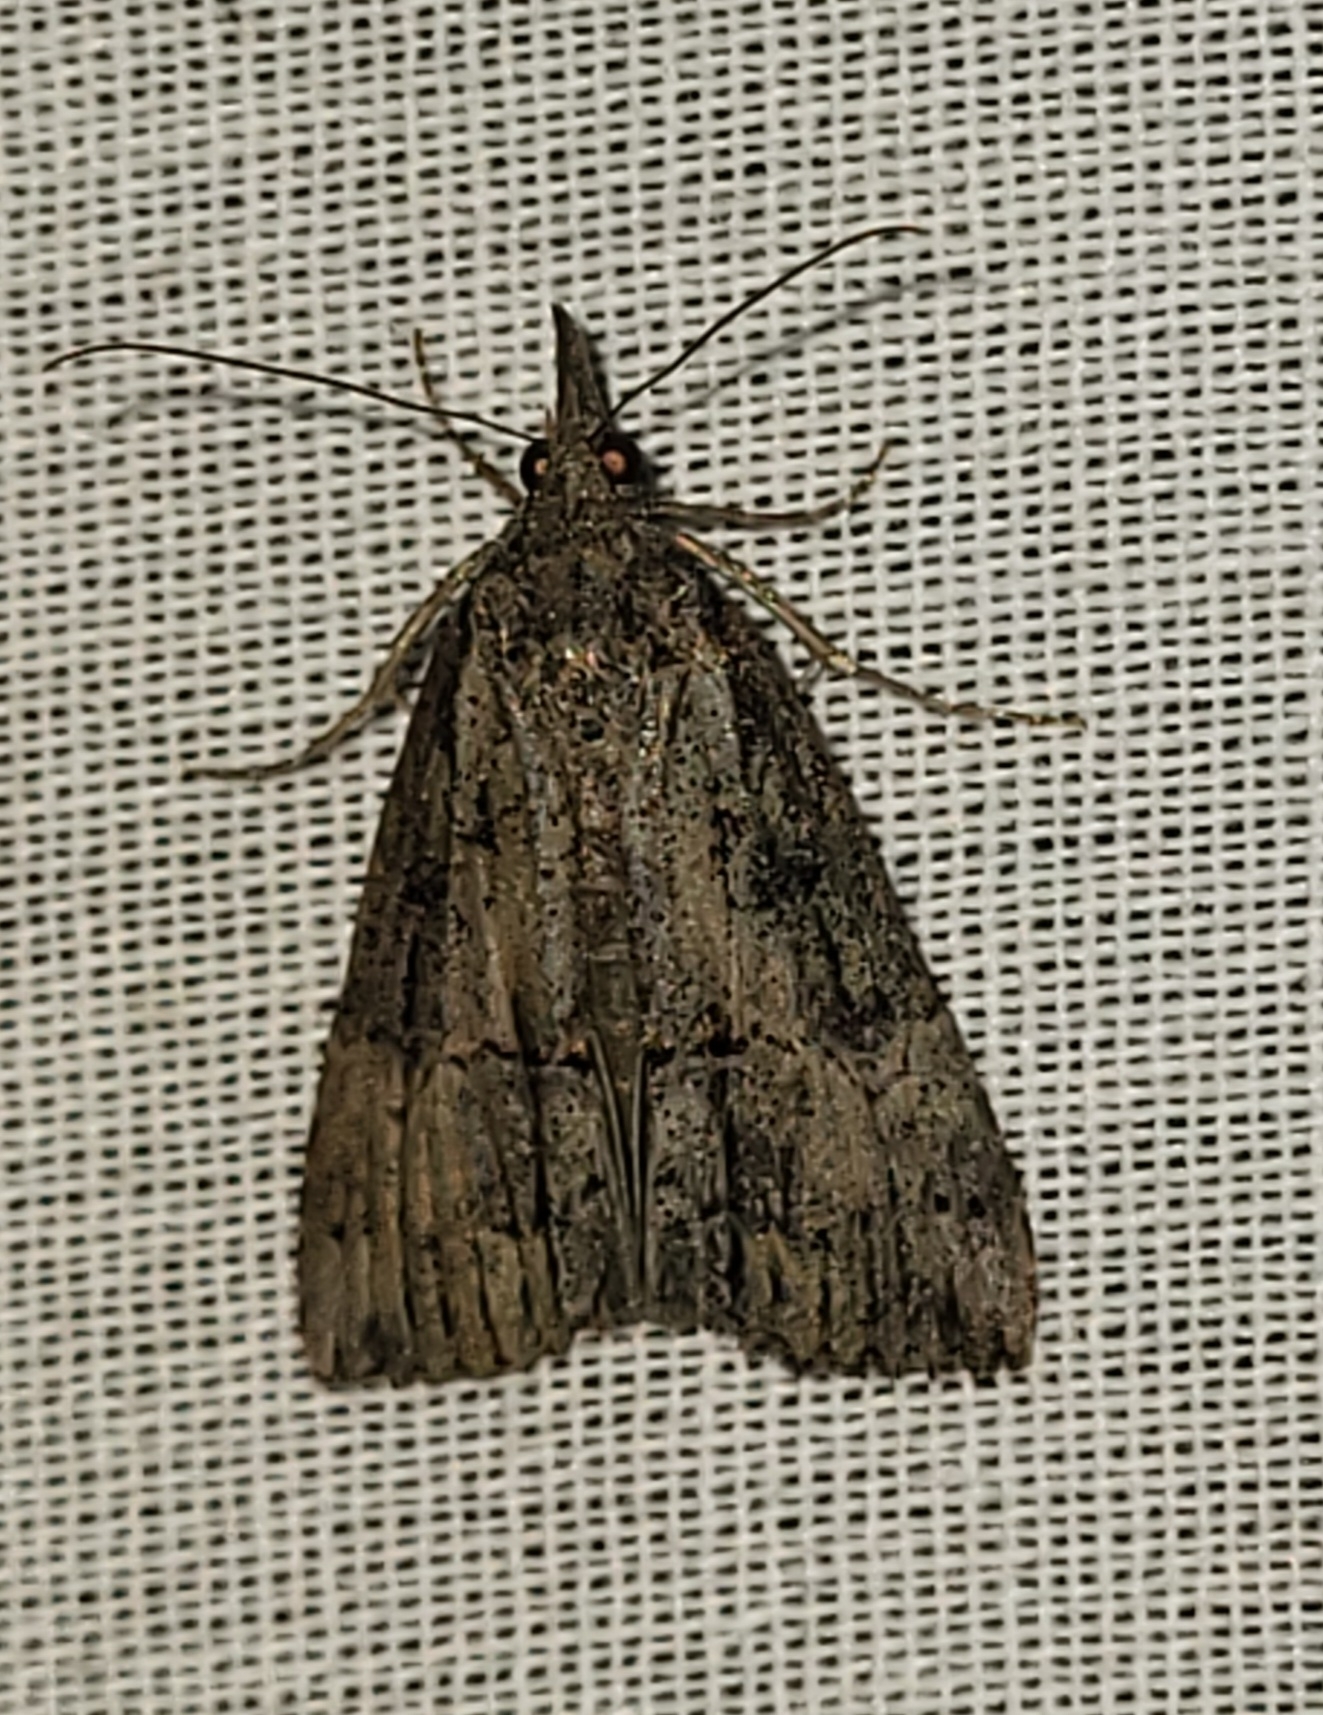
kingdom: Animalia
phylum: Arthropoda
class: Insecta
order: Lepidoptera
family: Erebidae
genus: Hypena
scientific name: Hypena scabra
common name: Green cloverworm
